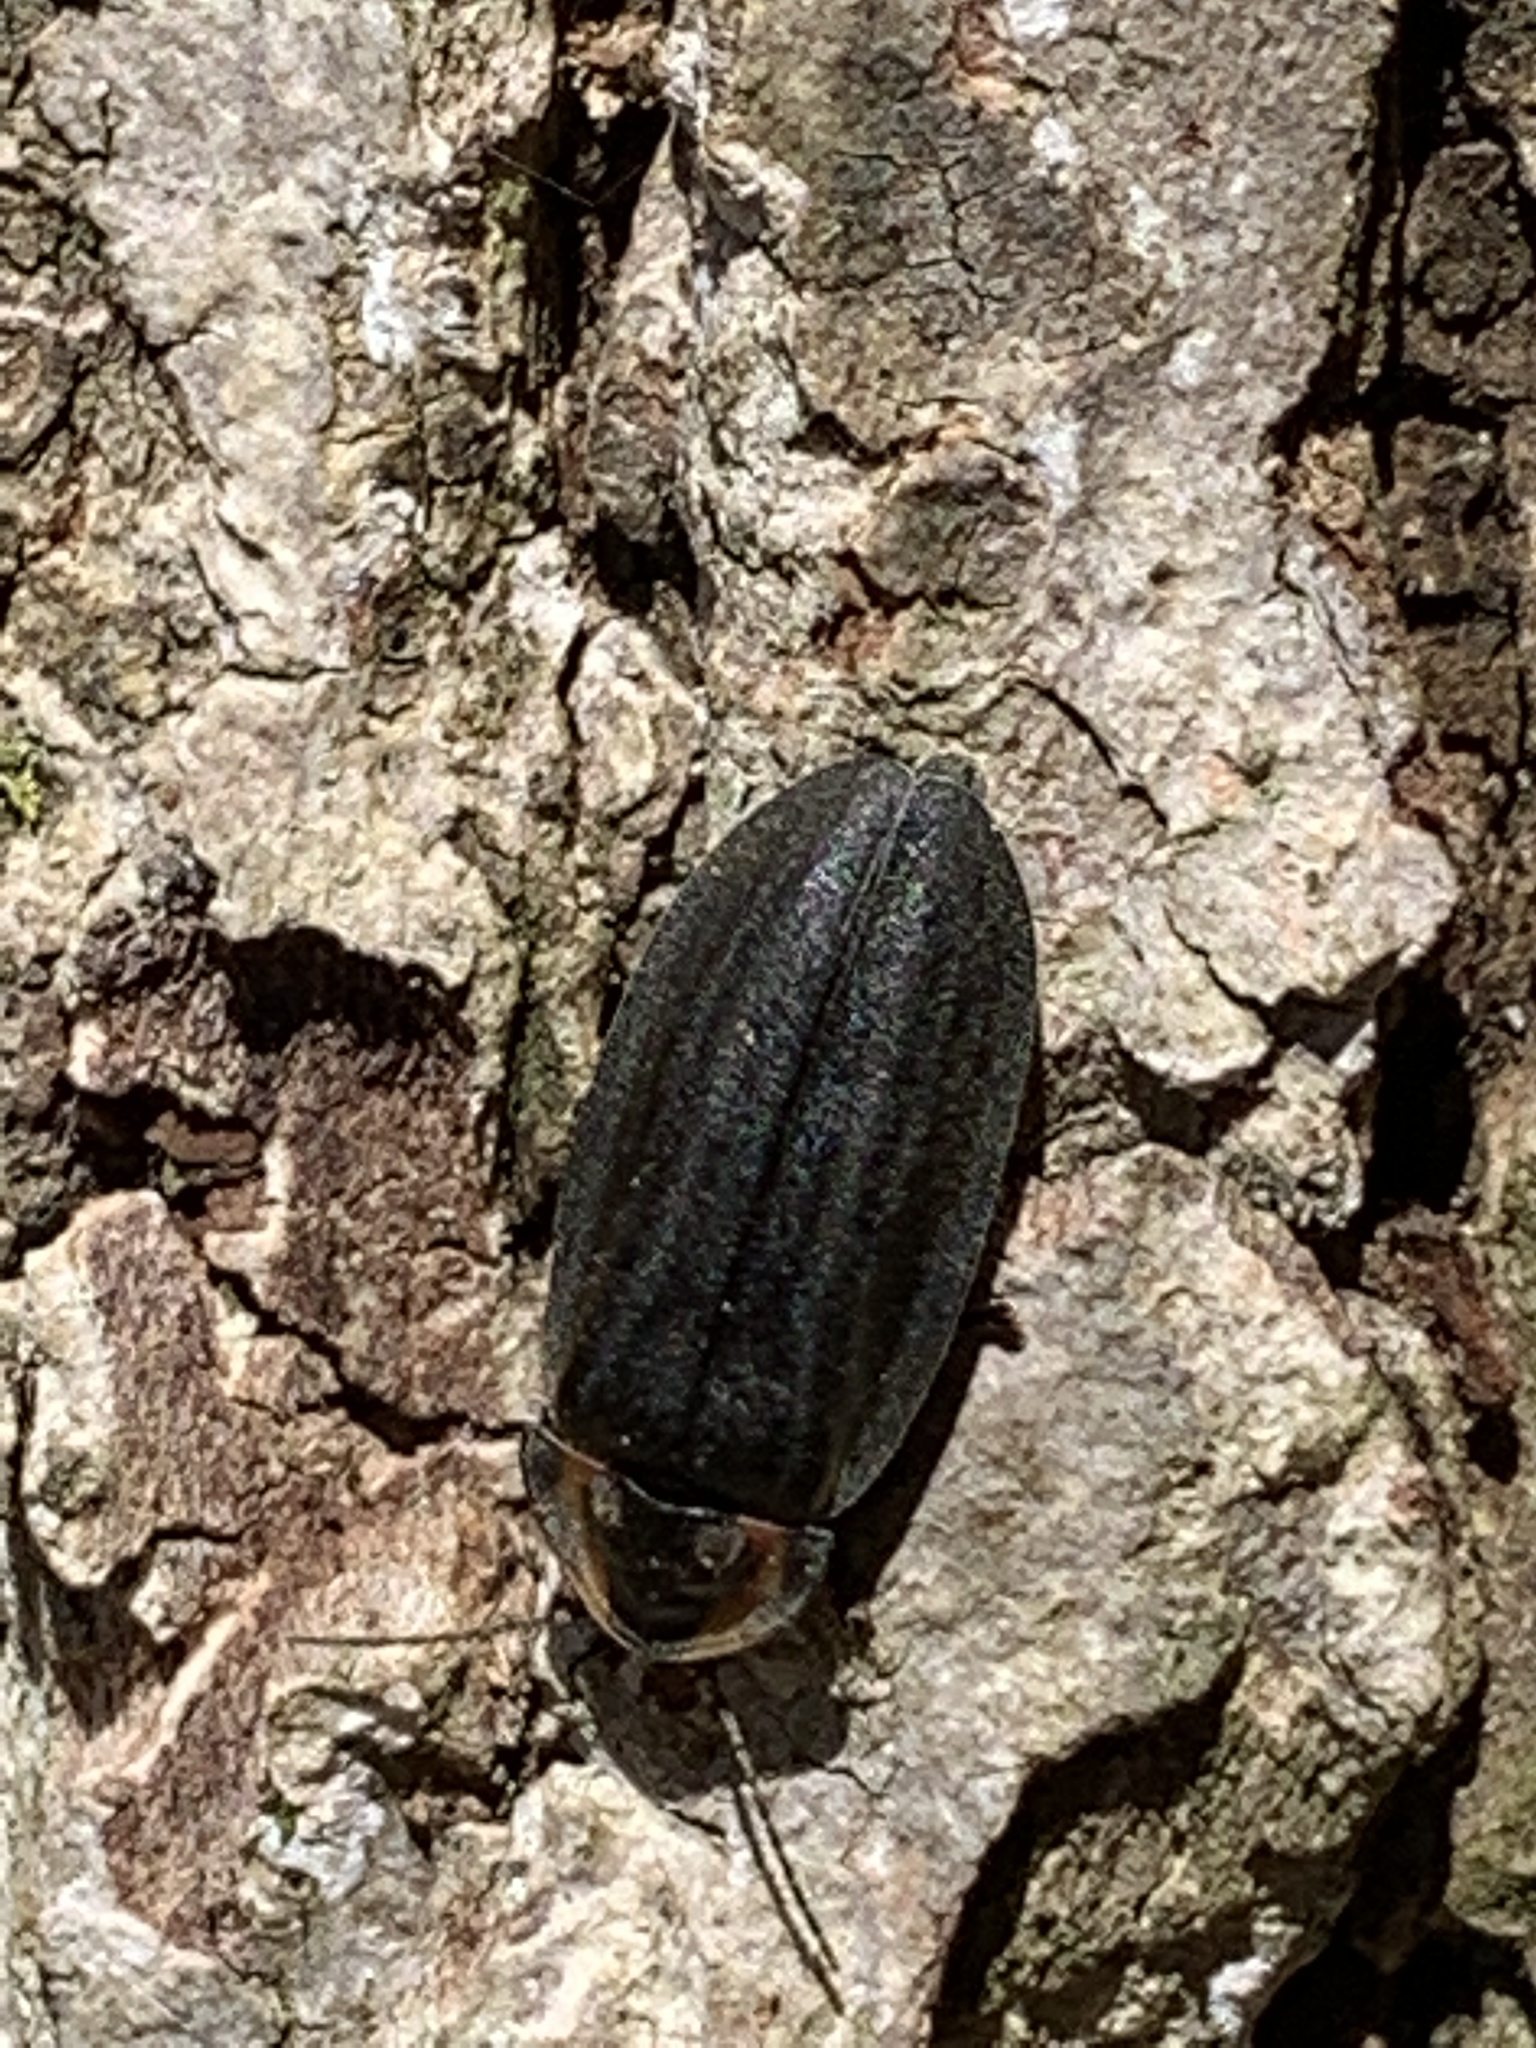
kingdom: Animalia
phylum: Arthropoda
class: Insecta
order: Coleoptera
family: Lampyridae
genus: Photinus
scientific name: Photinus corrusca
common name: Winter firefly
